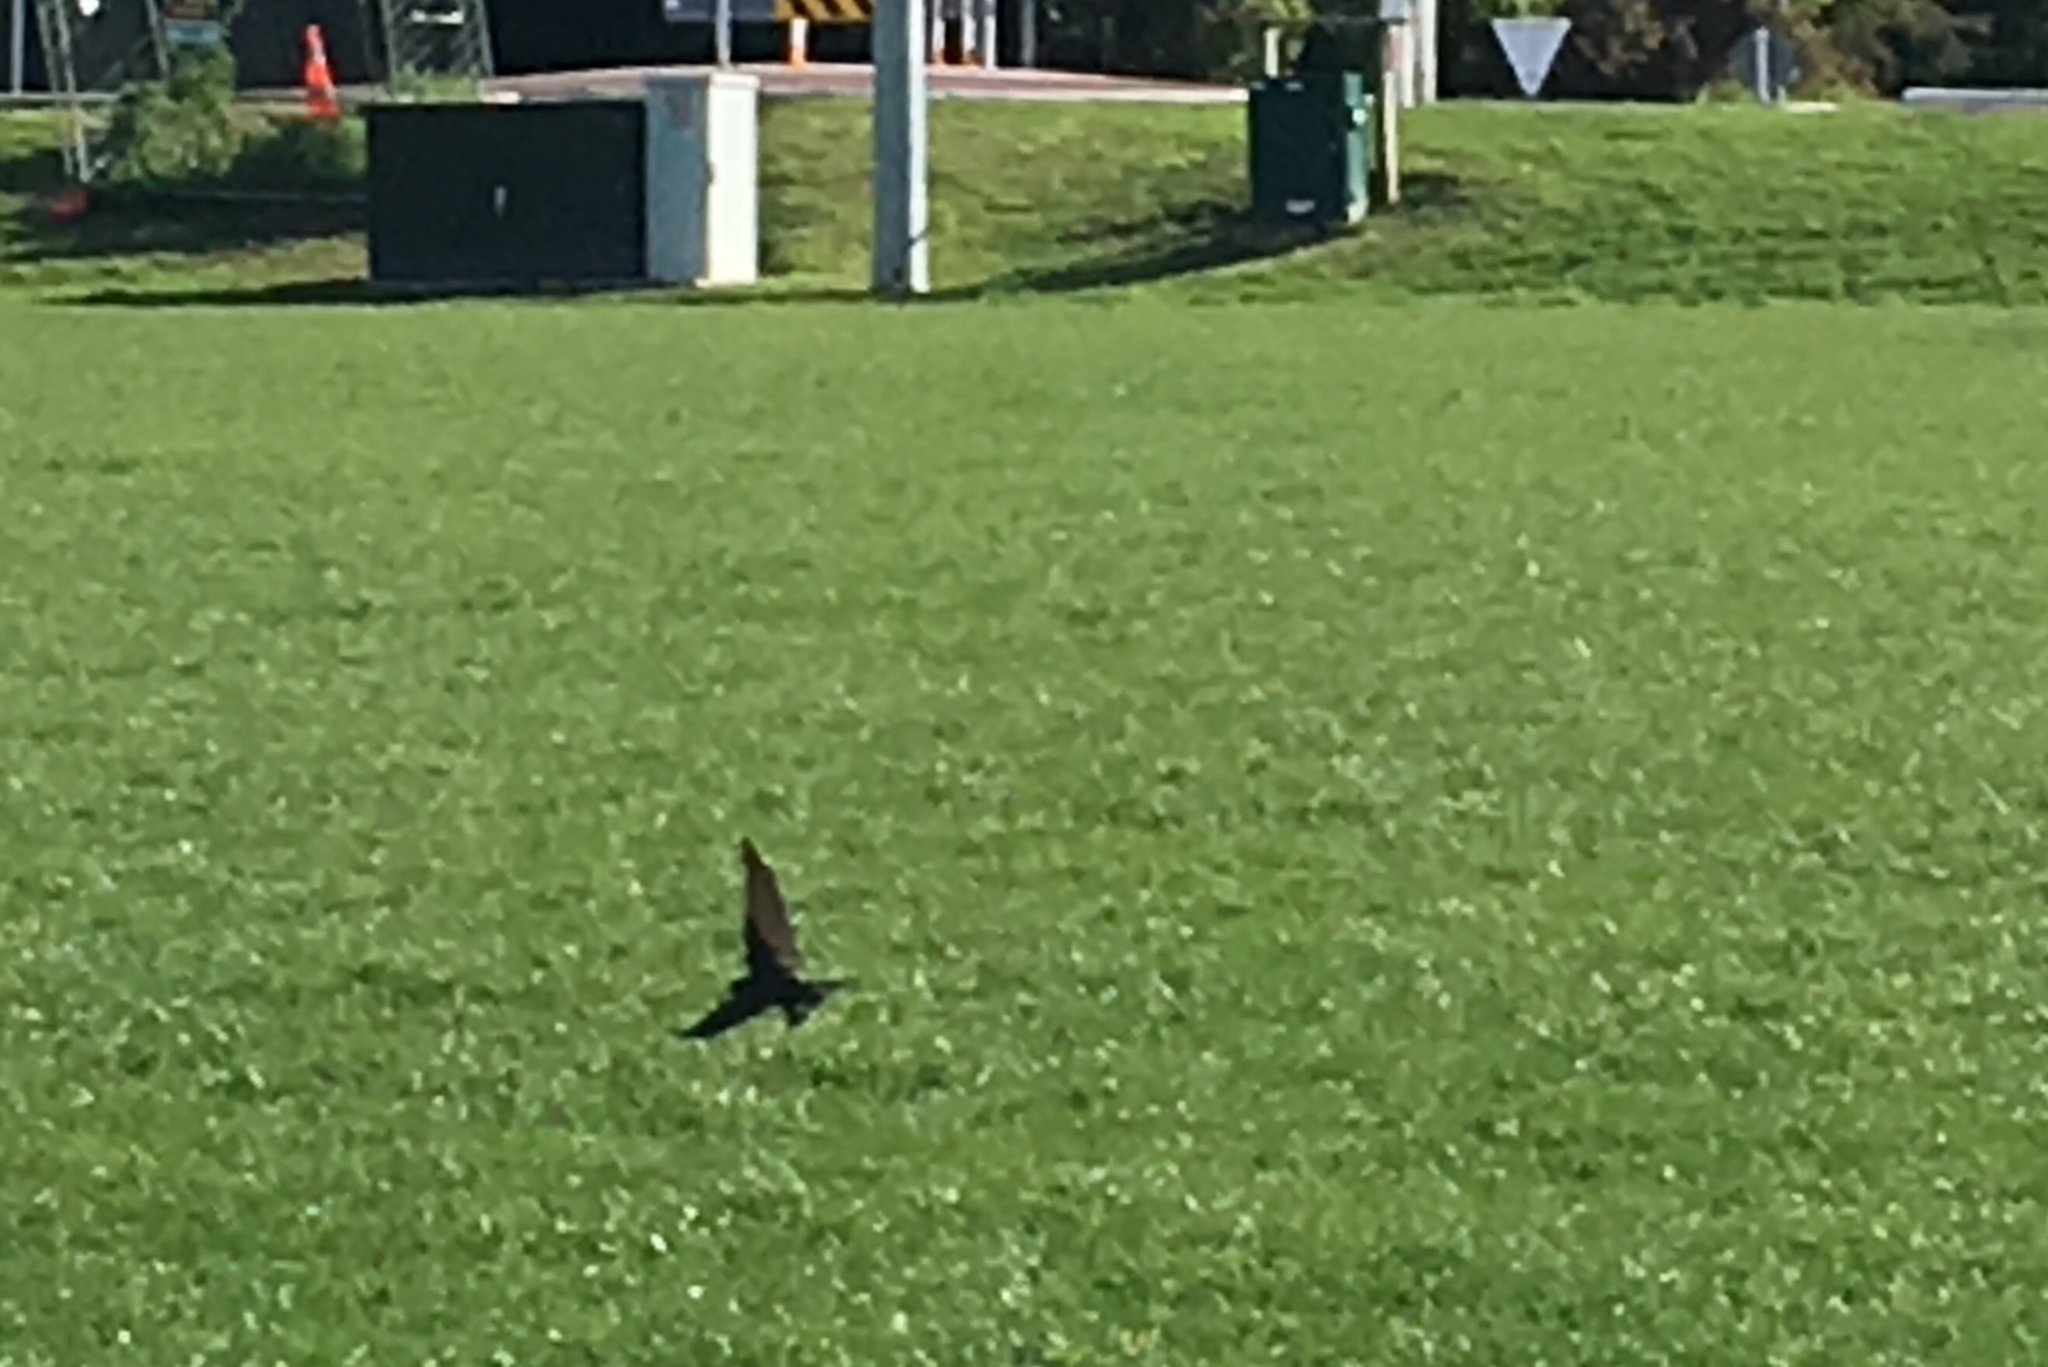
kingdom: Animalia
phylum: Chordata
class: Aves
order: Passeriformes
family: Hirundinidae
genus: Hirundo
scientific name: Hirundo neoxena
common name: Welcome swallow
